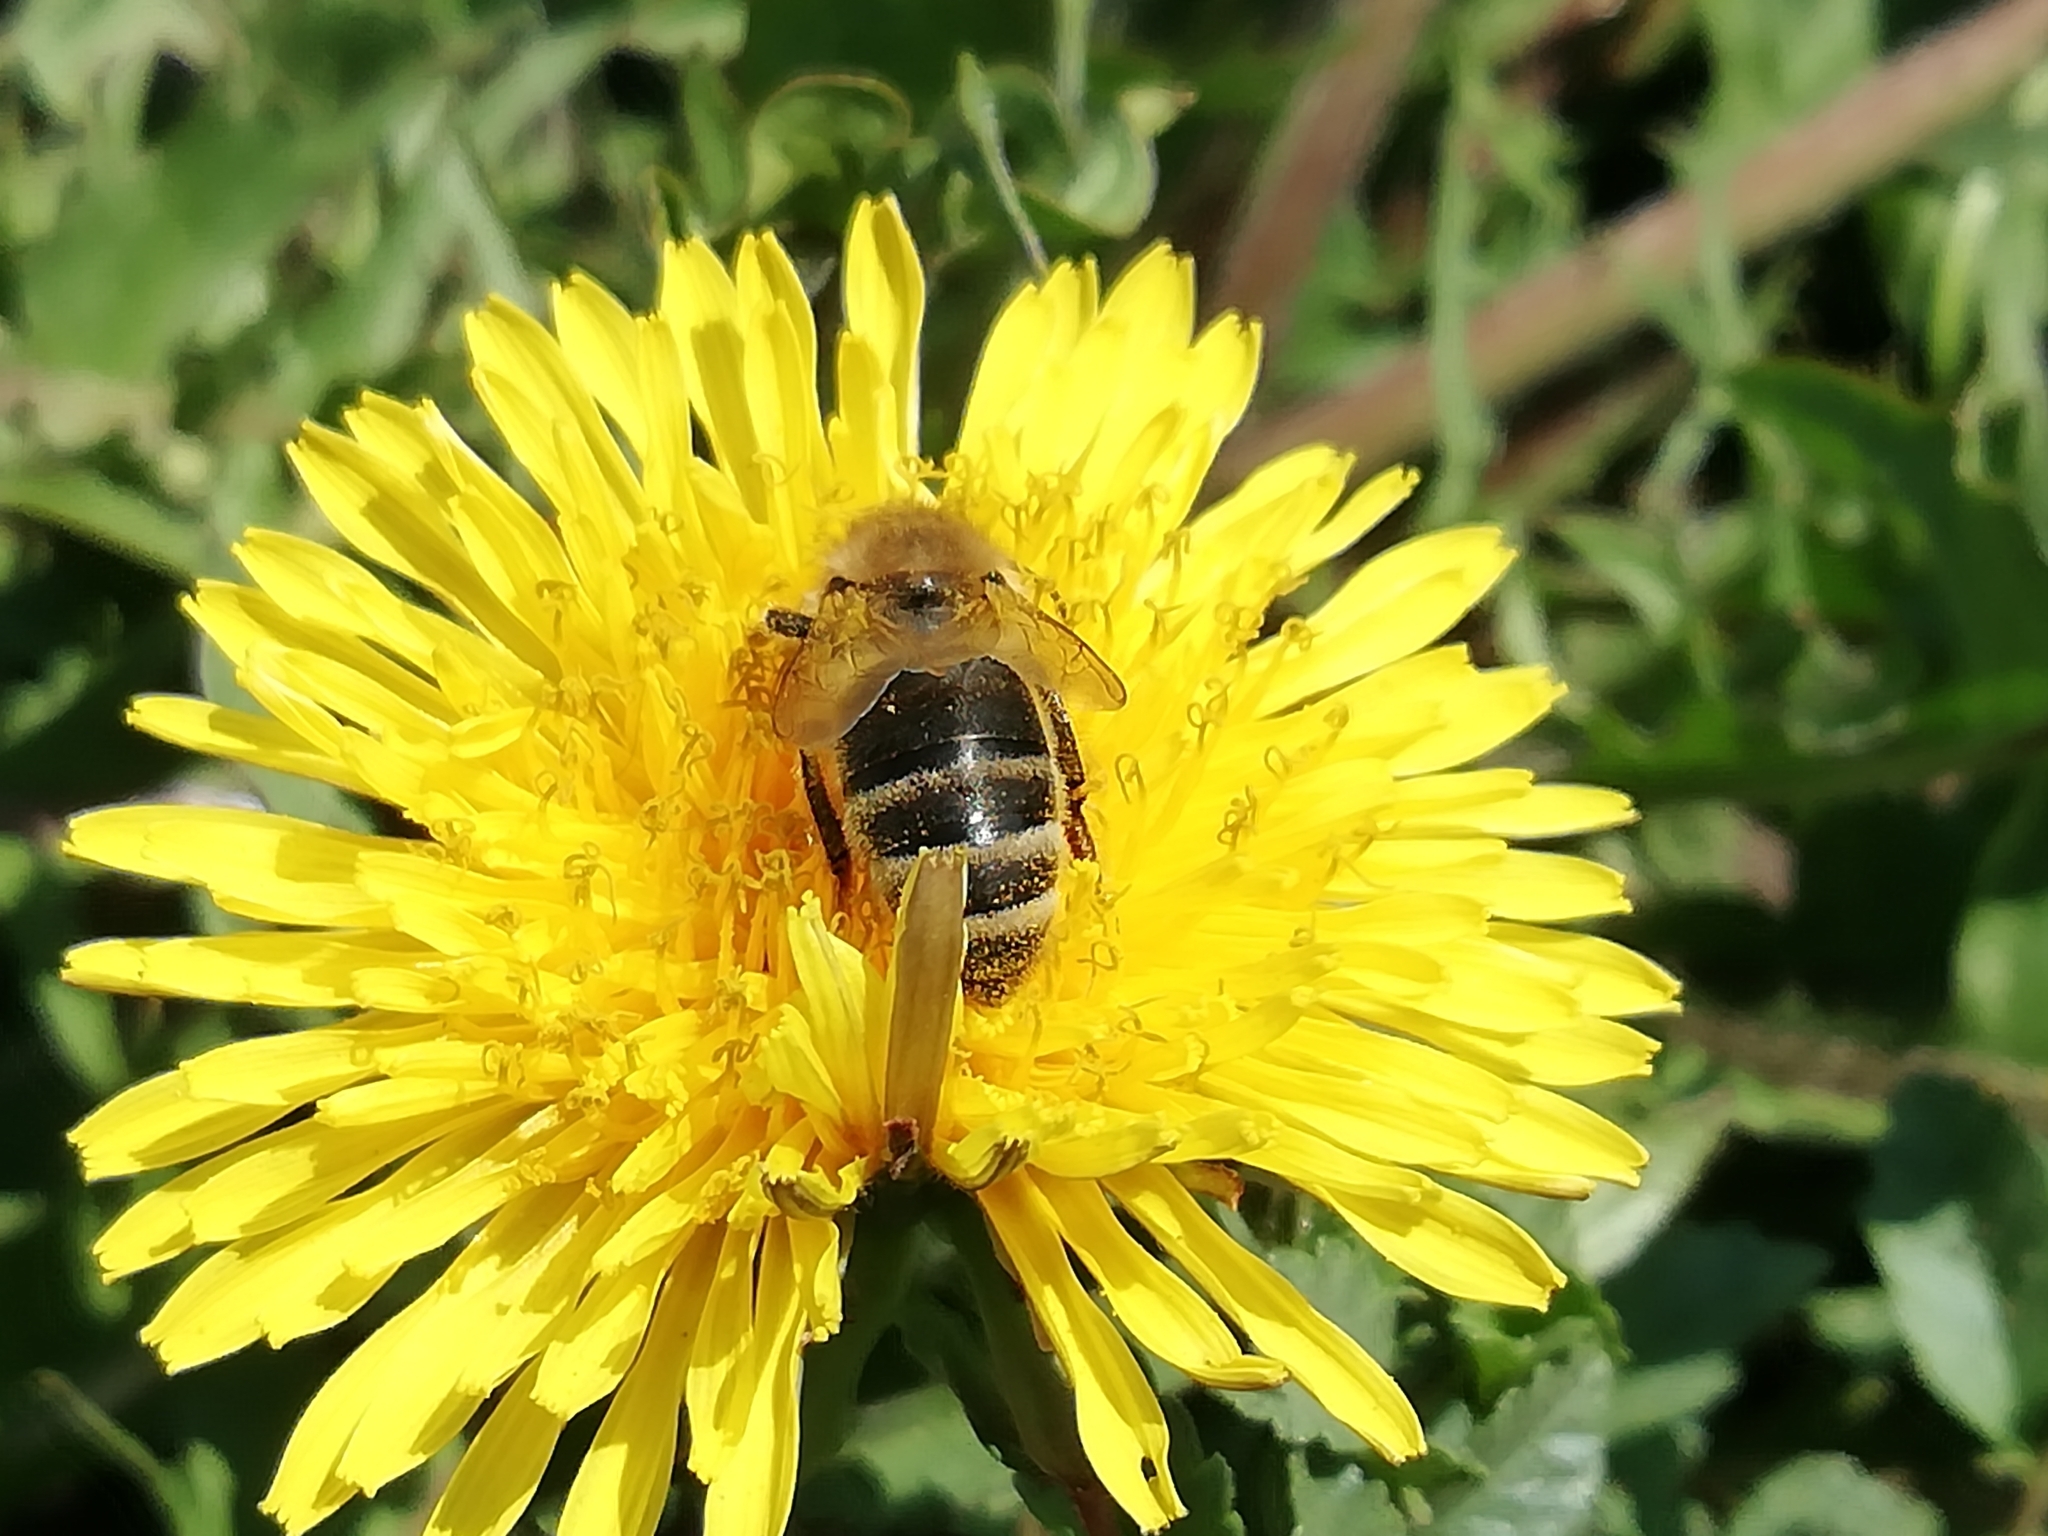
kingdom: Animalia
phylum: Arthropoda
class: Insecta
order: Hymenoptera
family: Apidae
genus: Apis
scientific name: Apis mellifera
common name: Honey bee
